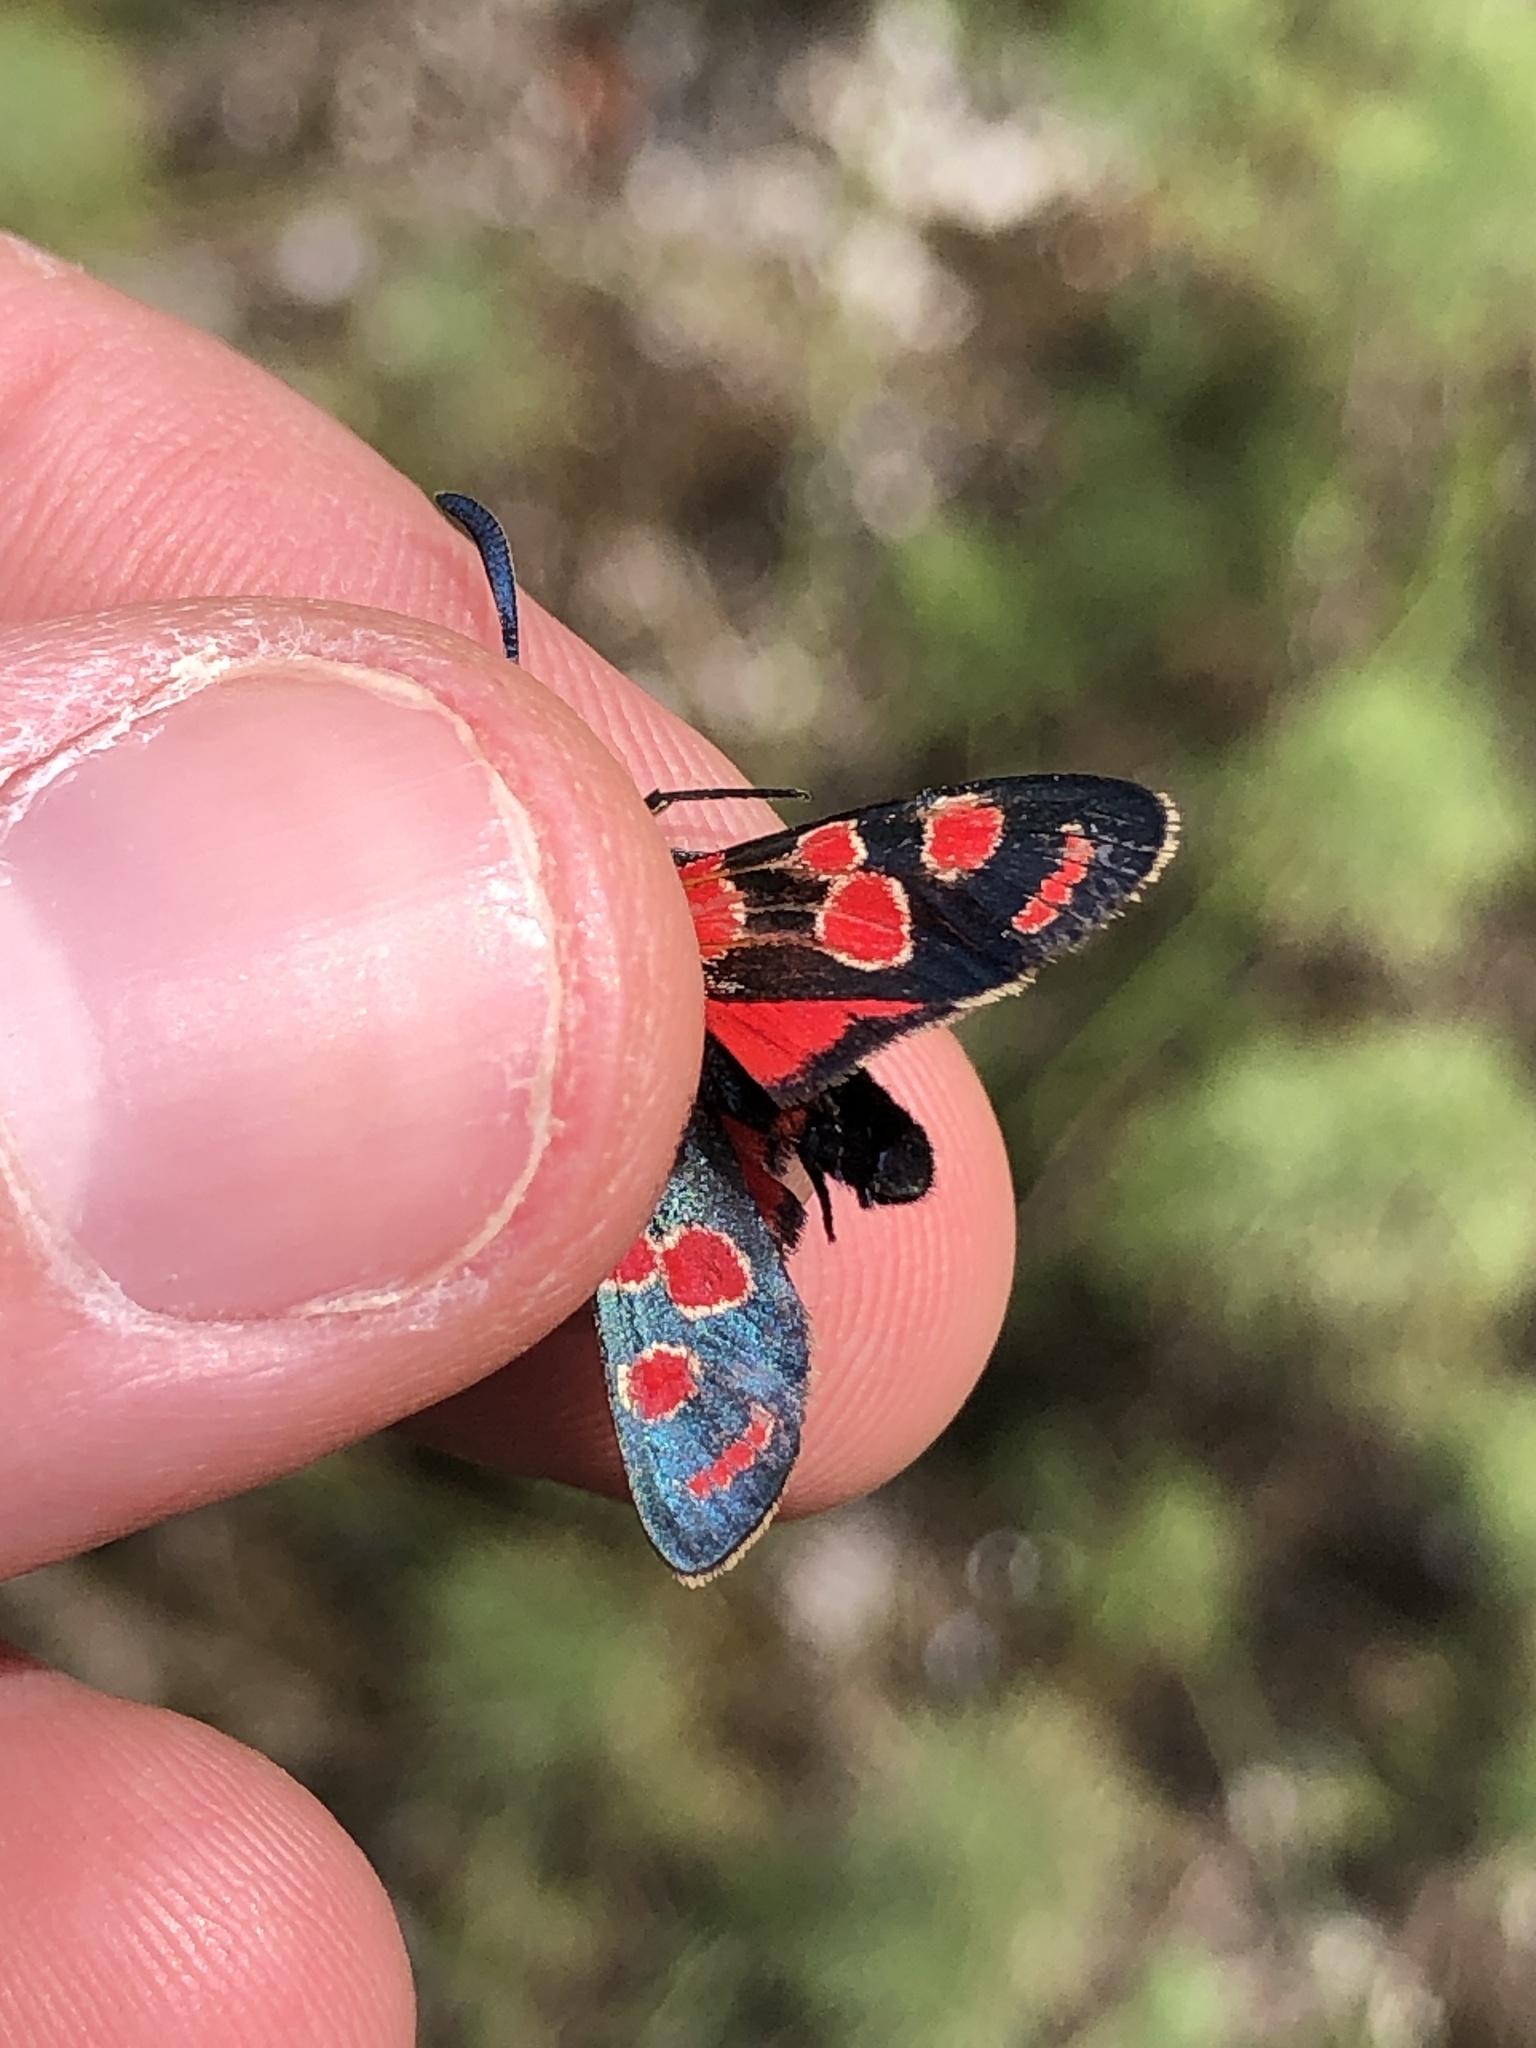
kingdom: Animalia
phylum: Arthropoda
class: Insecta
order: Lepidoptera
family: Zygaenidae
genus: Zygaena
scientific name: Zygaena carniolica
